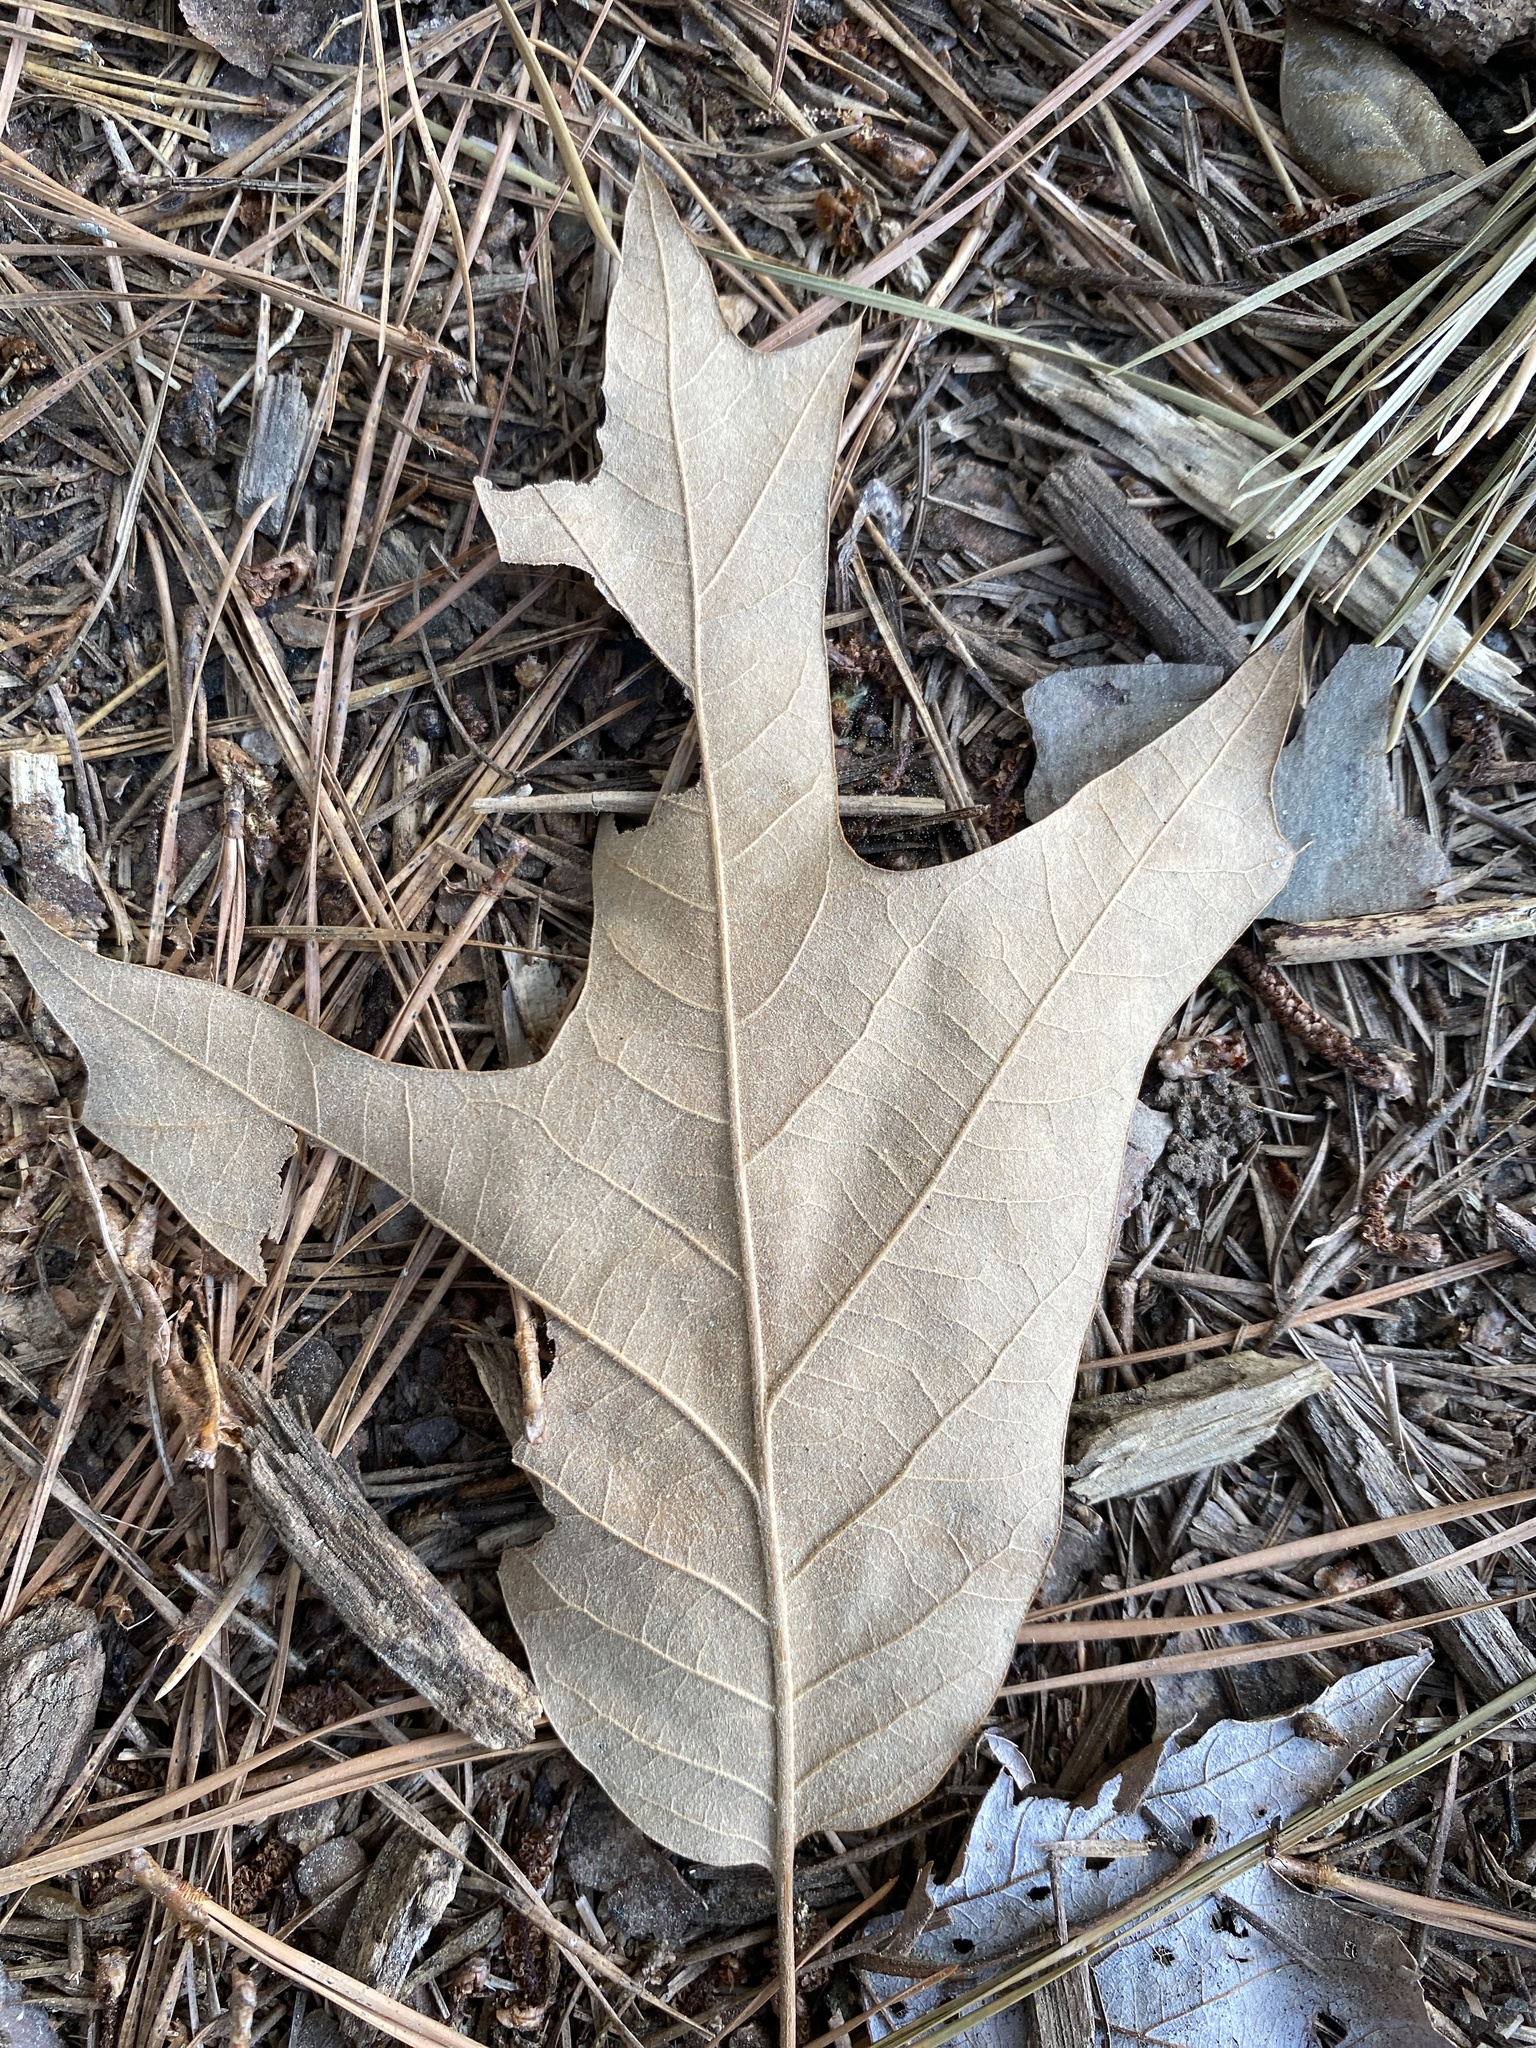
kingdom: Plantae
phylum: Tracheophyta
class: Magnoliopsida
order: Fagales
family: Fagaceae
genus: Quercus
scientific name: Quercus falcata
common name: Southern red oak
